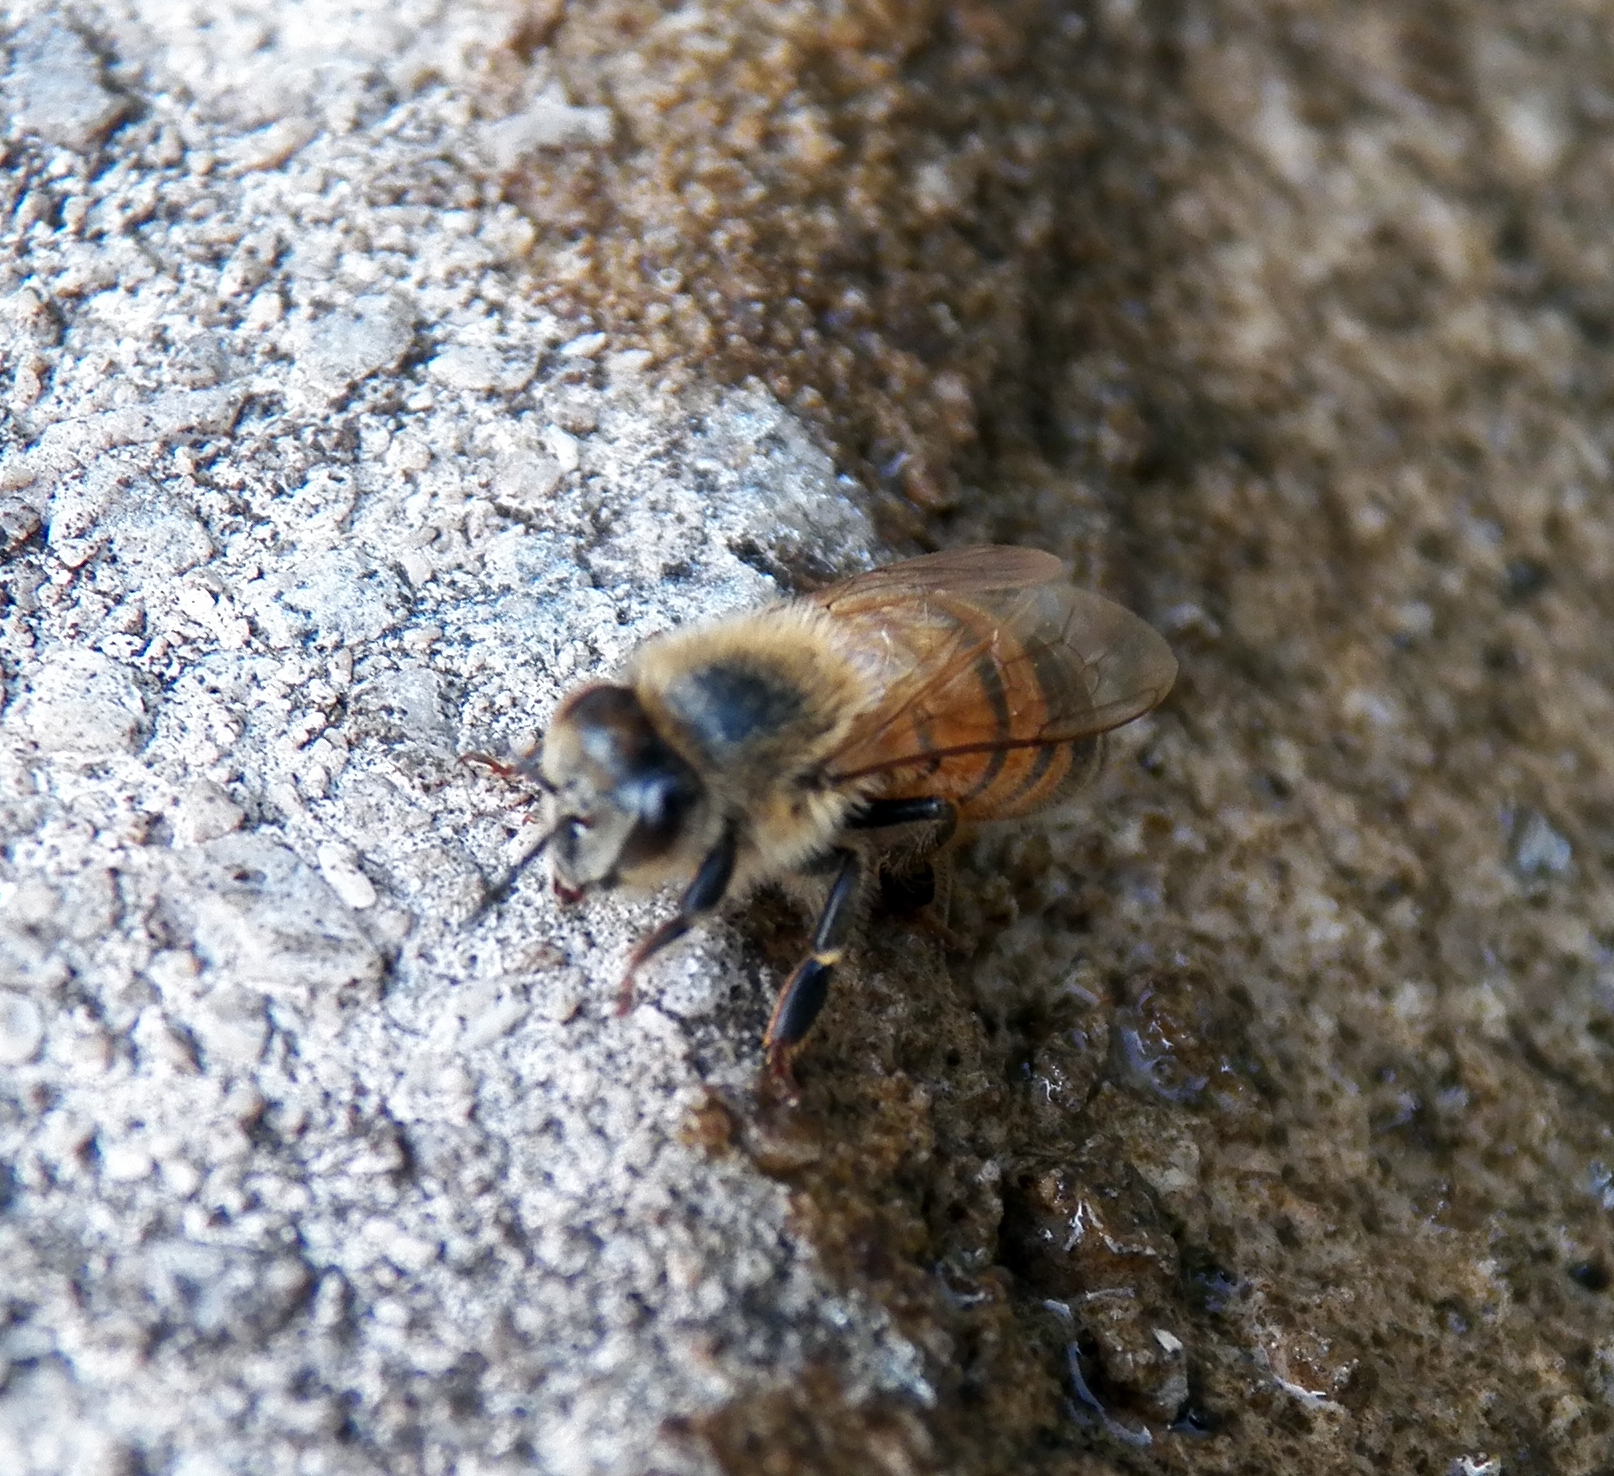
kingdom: Animalia
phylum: Arthropoda
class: Insecta
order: Hymenoptera
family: Apidae
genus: Apis
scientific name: Apis mellifera
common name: Honey bee
